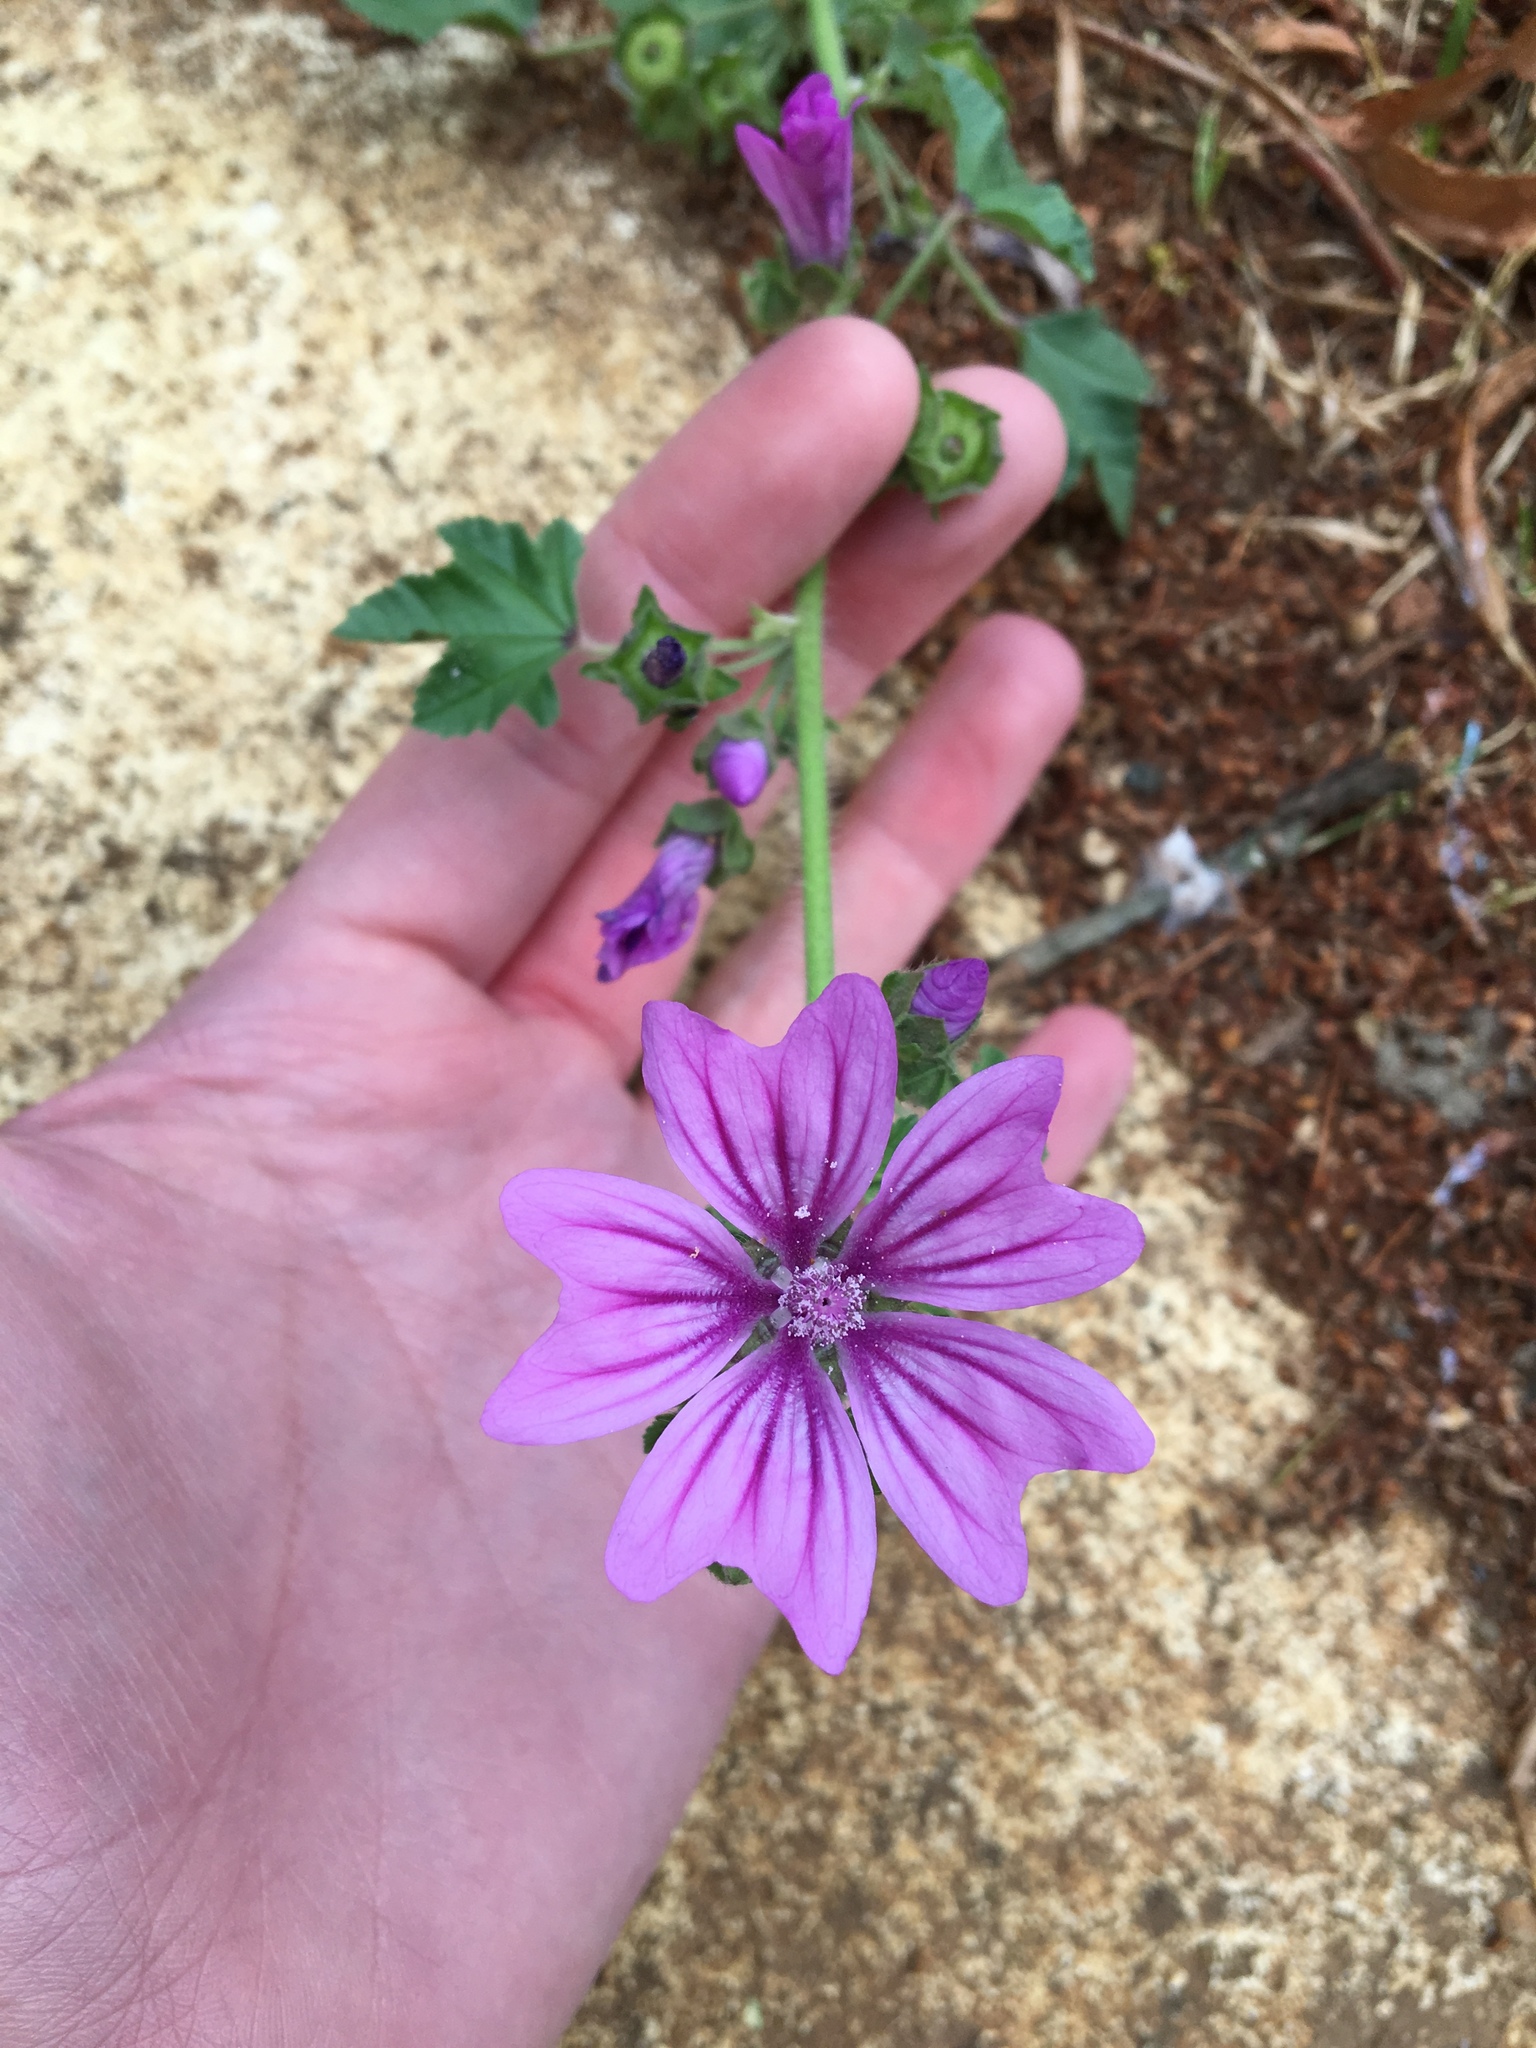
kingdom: Plantae
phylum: Tracheophyta
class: Magnoliopsida
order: Malvales
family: Malvaceae
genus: Malva
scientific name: Malva sylvestris
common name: Common mallow
